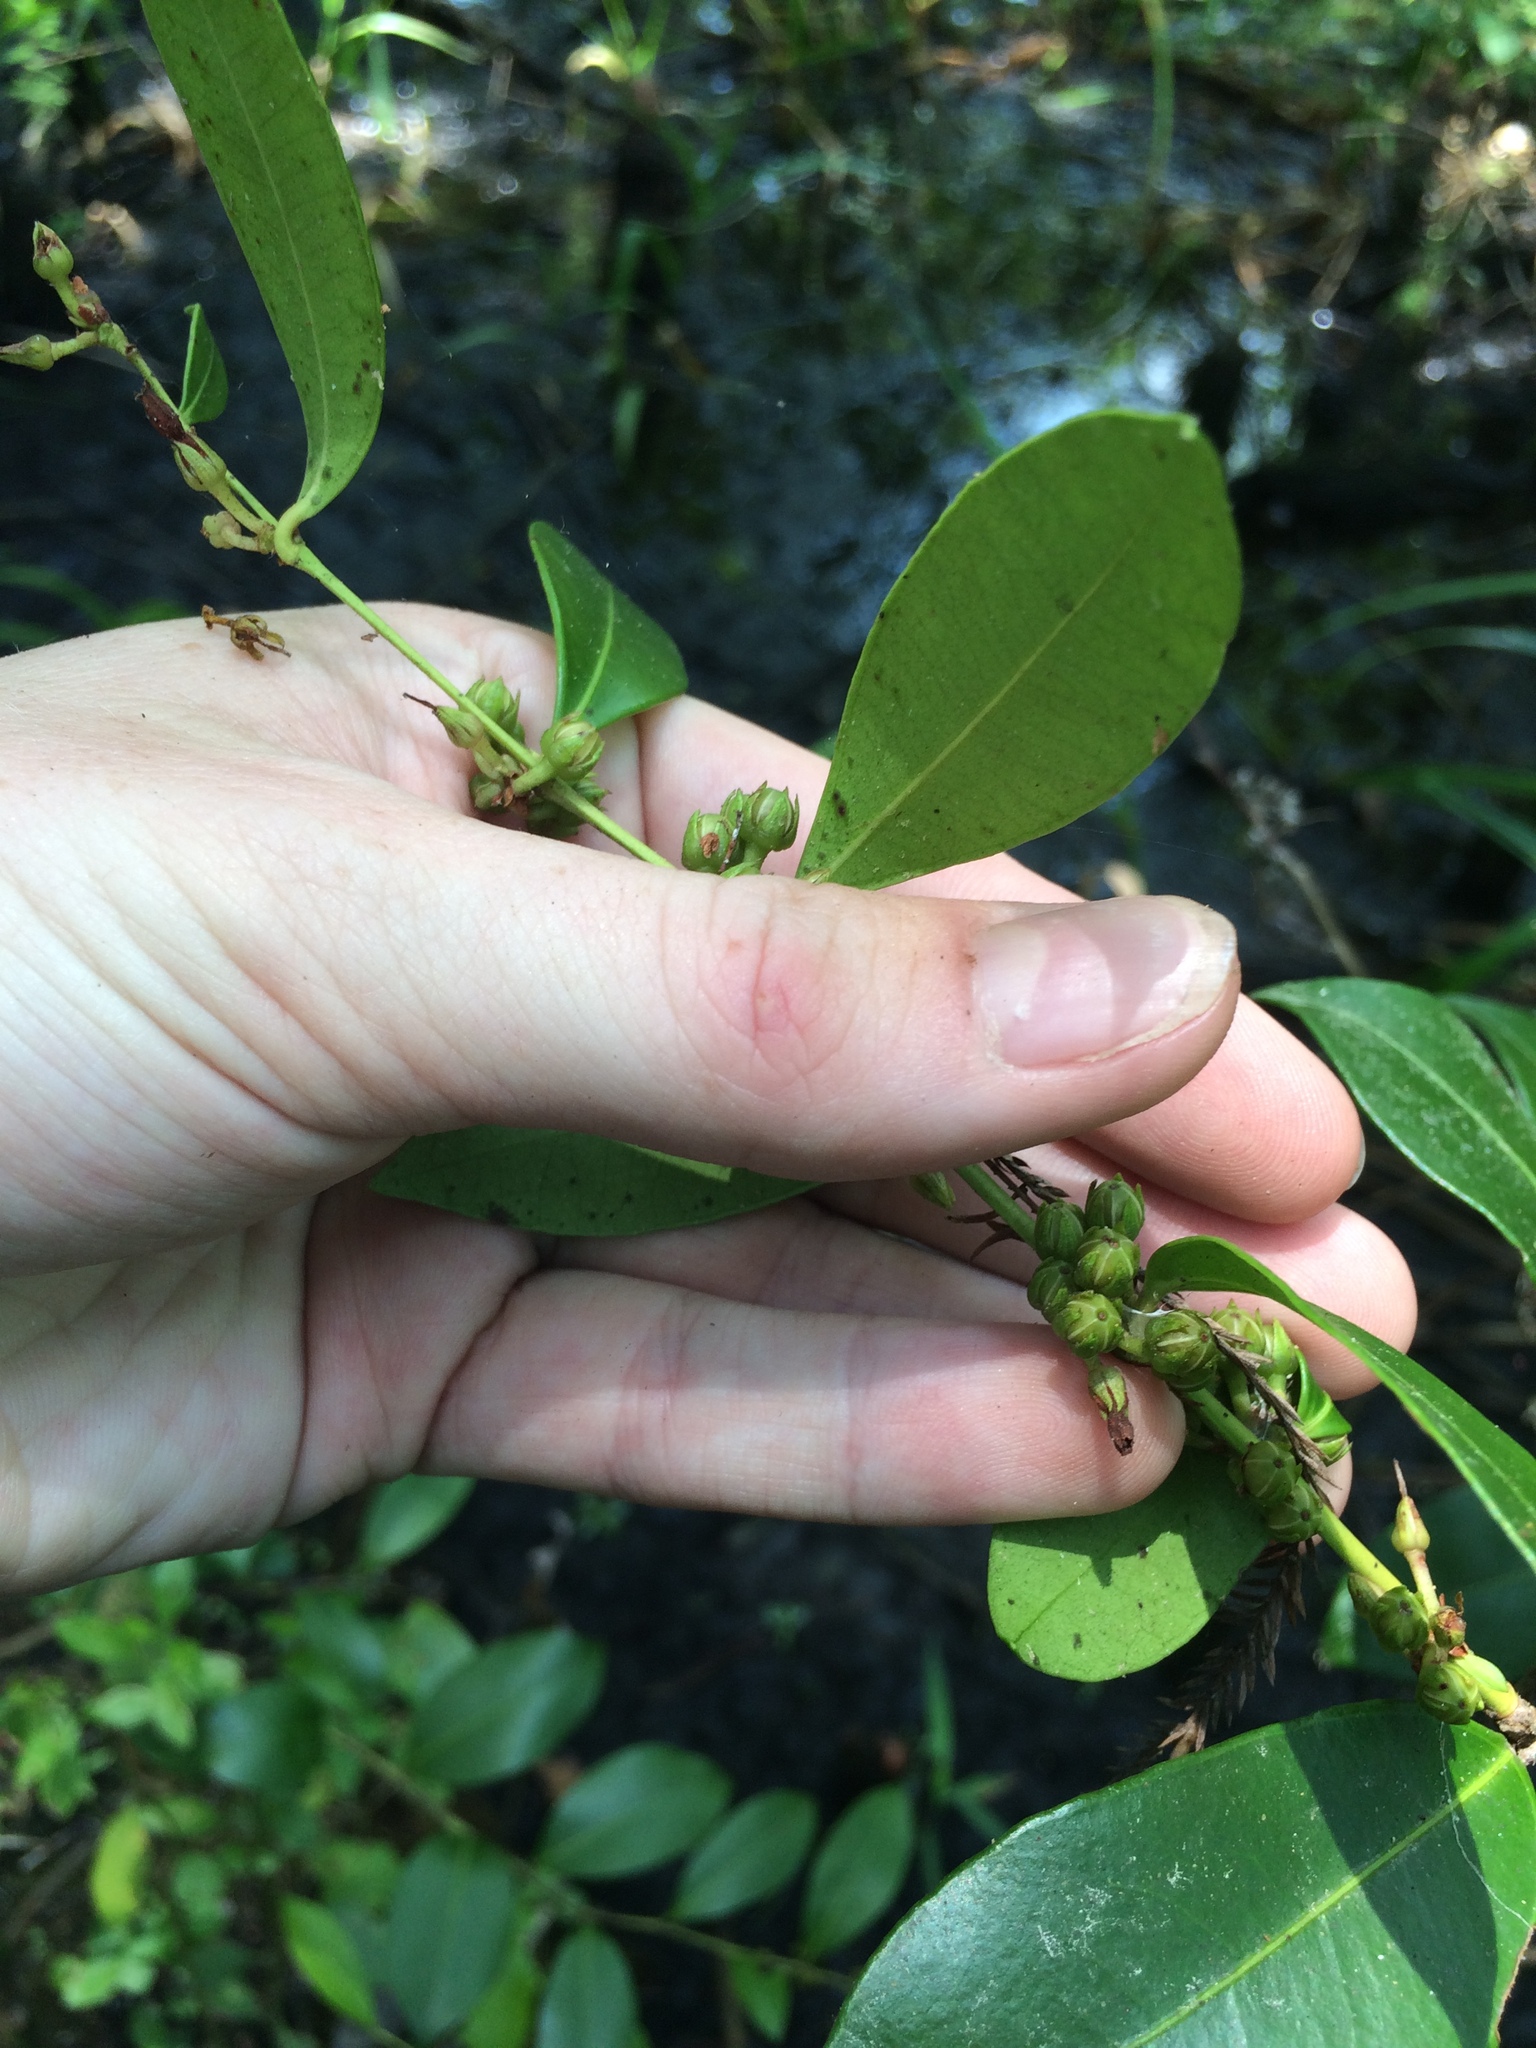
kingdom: Plantae
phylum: Tracheophyta
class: Magnoliopsida
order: Ericales
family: Ericaceae
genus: Lyonia
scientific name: Lyonia lucida
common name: Fetterbush
